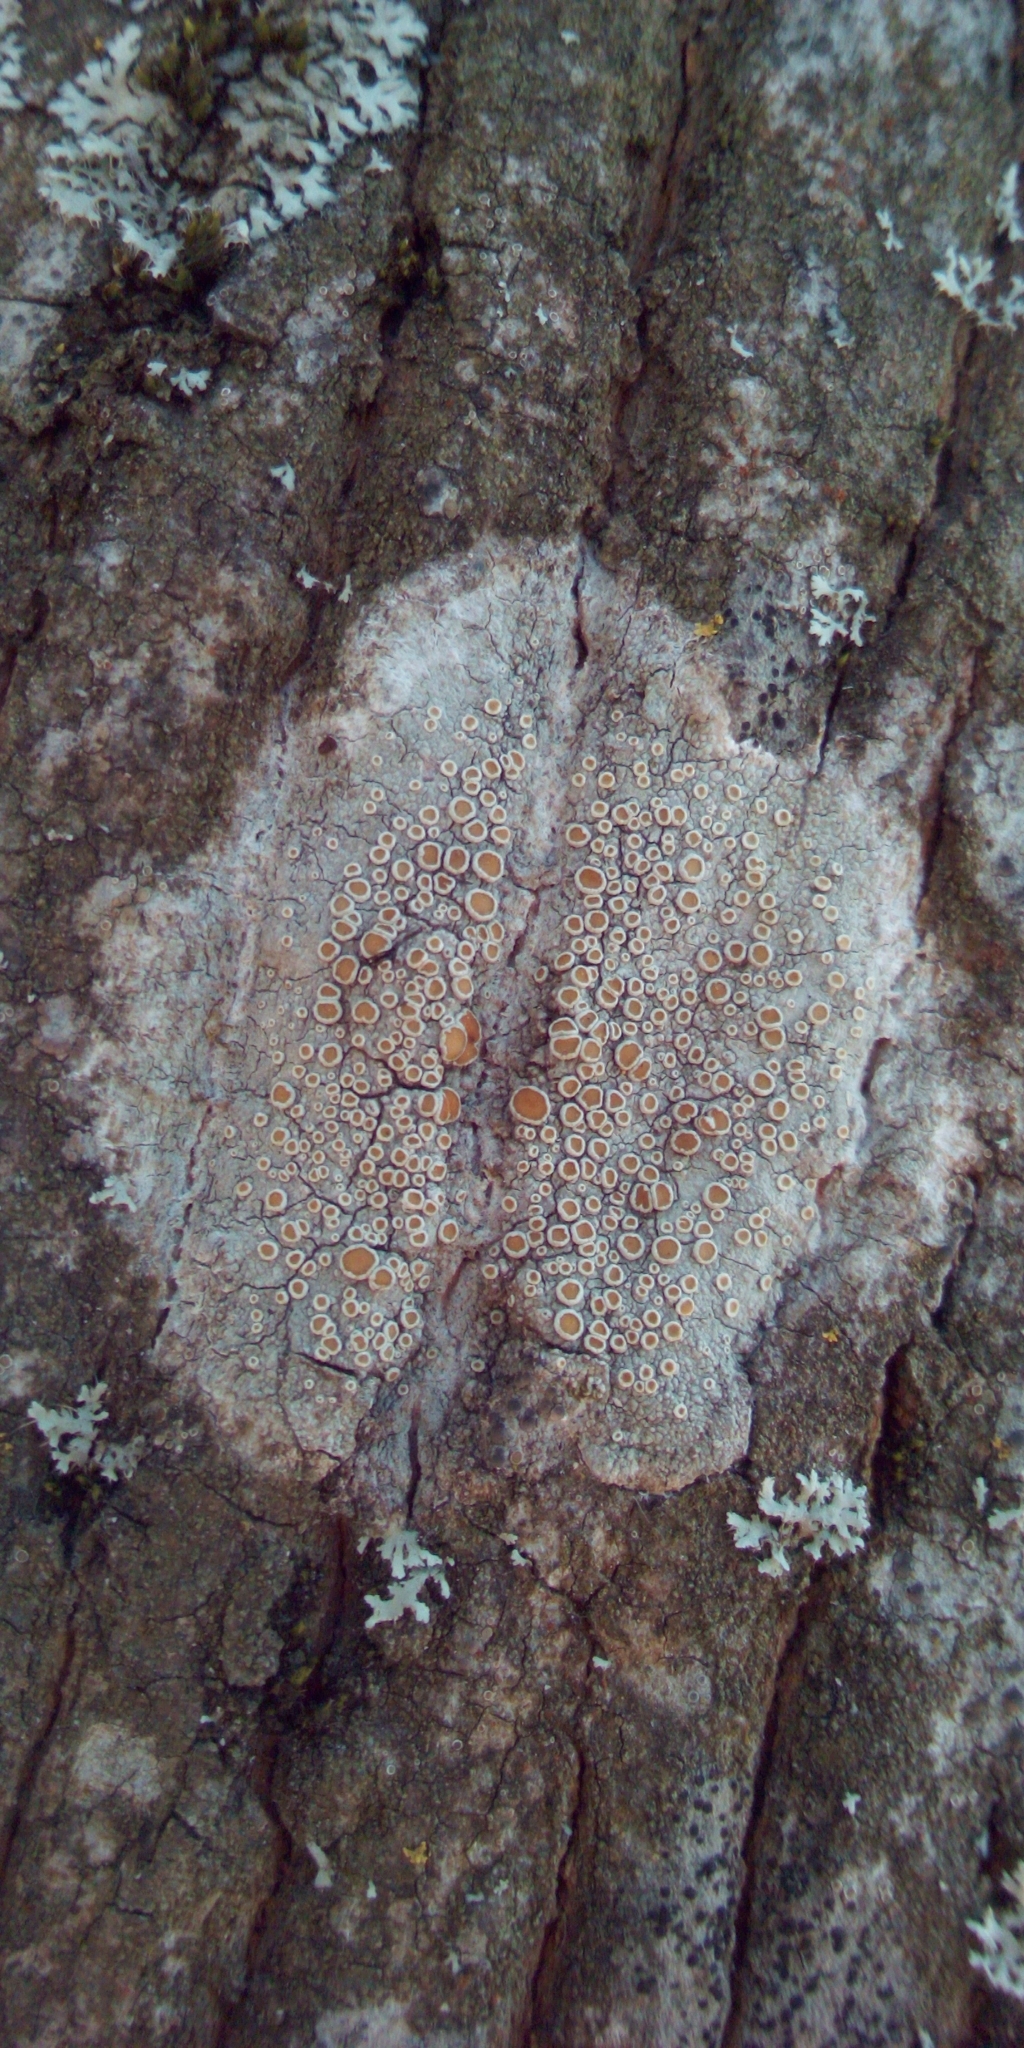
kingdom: Fungi
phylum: Ascomycota
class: Lecanoromycetes
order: Lecanorales
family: Lecanoraceae
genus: Lecanora
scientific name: Lecanora
